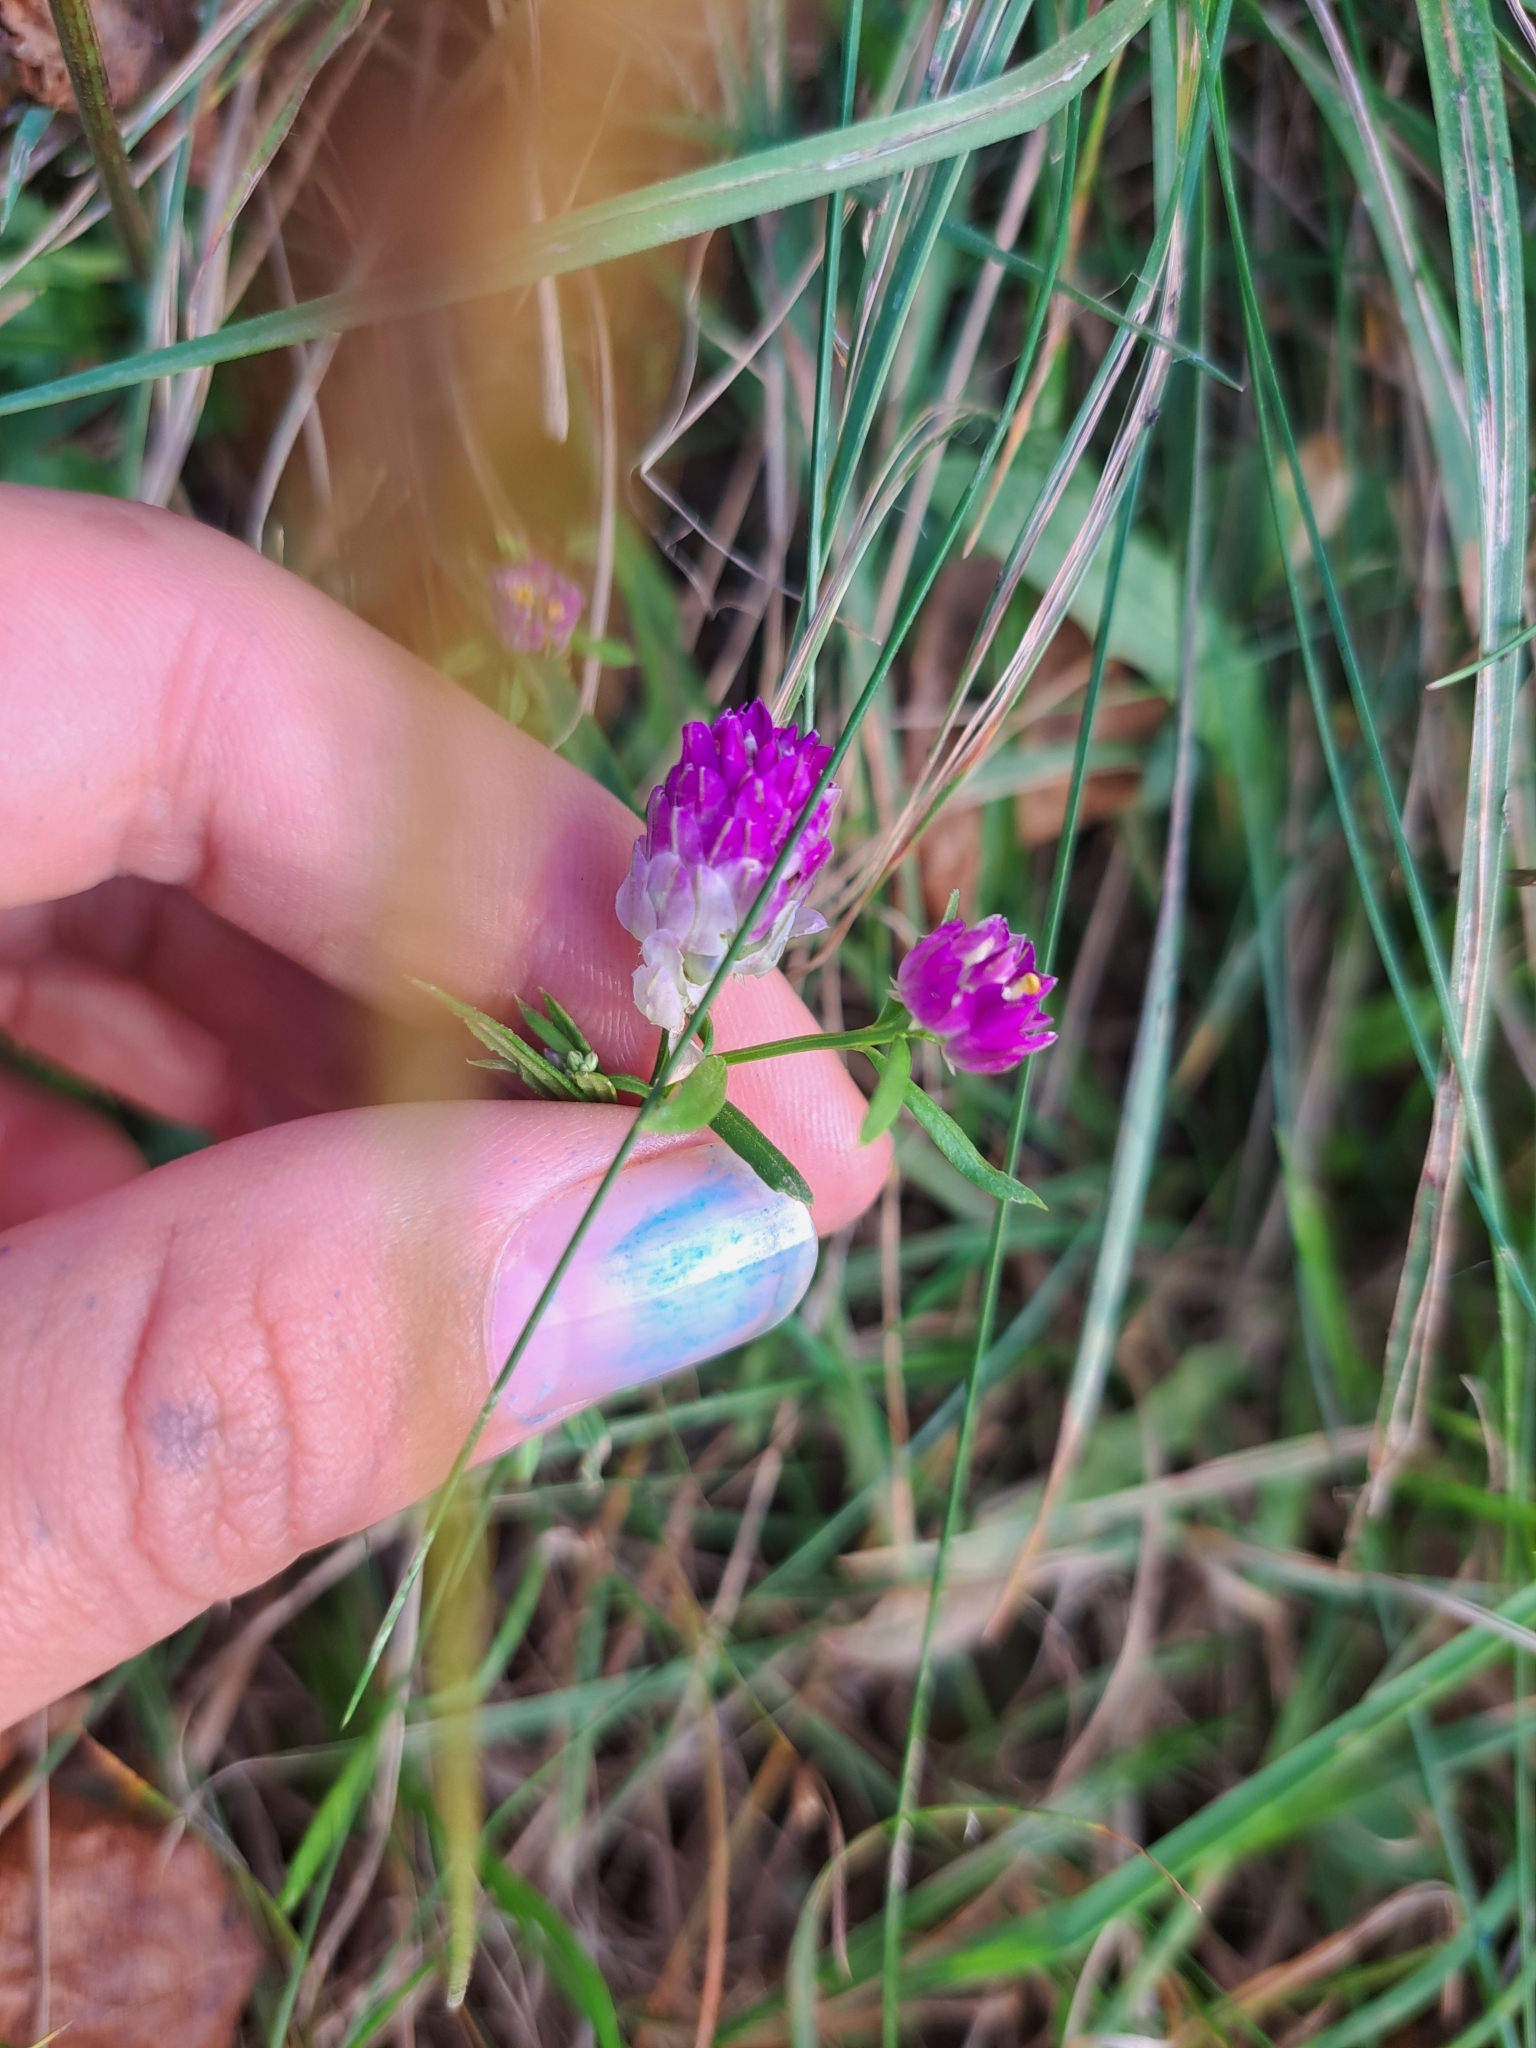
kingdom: Plantae
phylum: Tracheophyta
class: Magnoliopsida
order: Fabales
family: Polygalaceae
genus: Polygala
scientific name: Polygala sanguinea
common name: Blood milkwort
